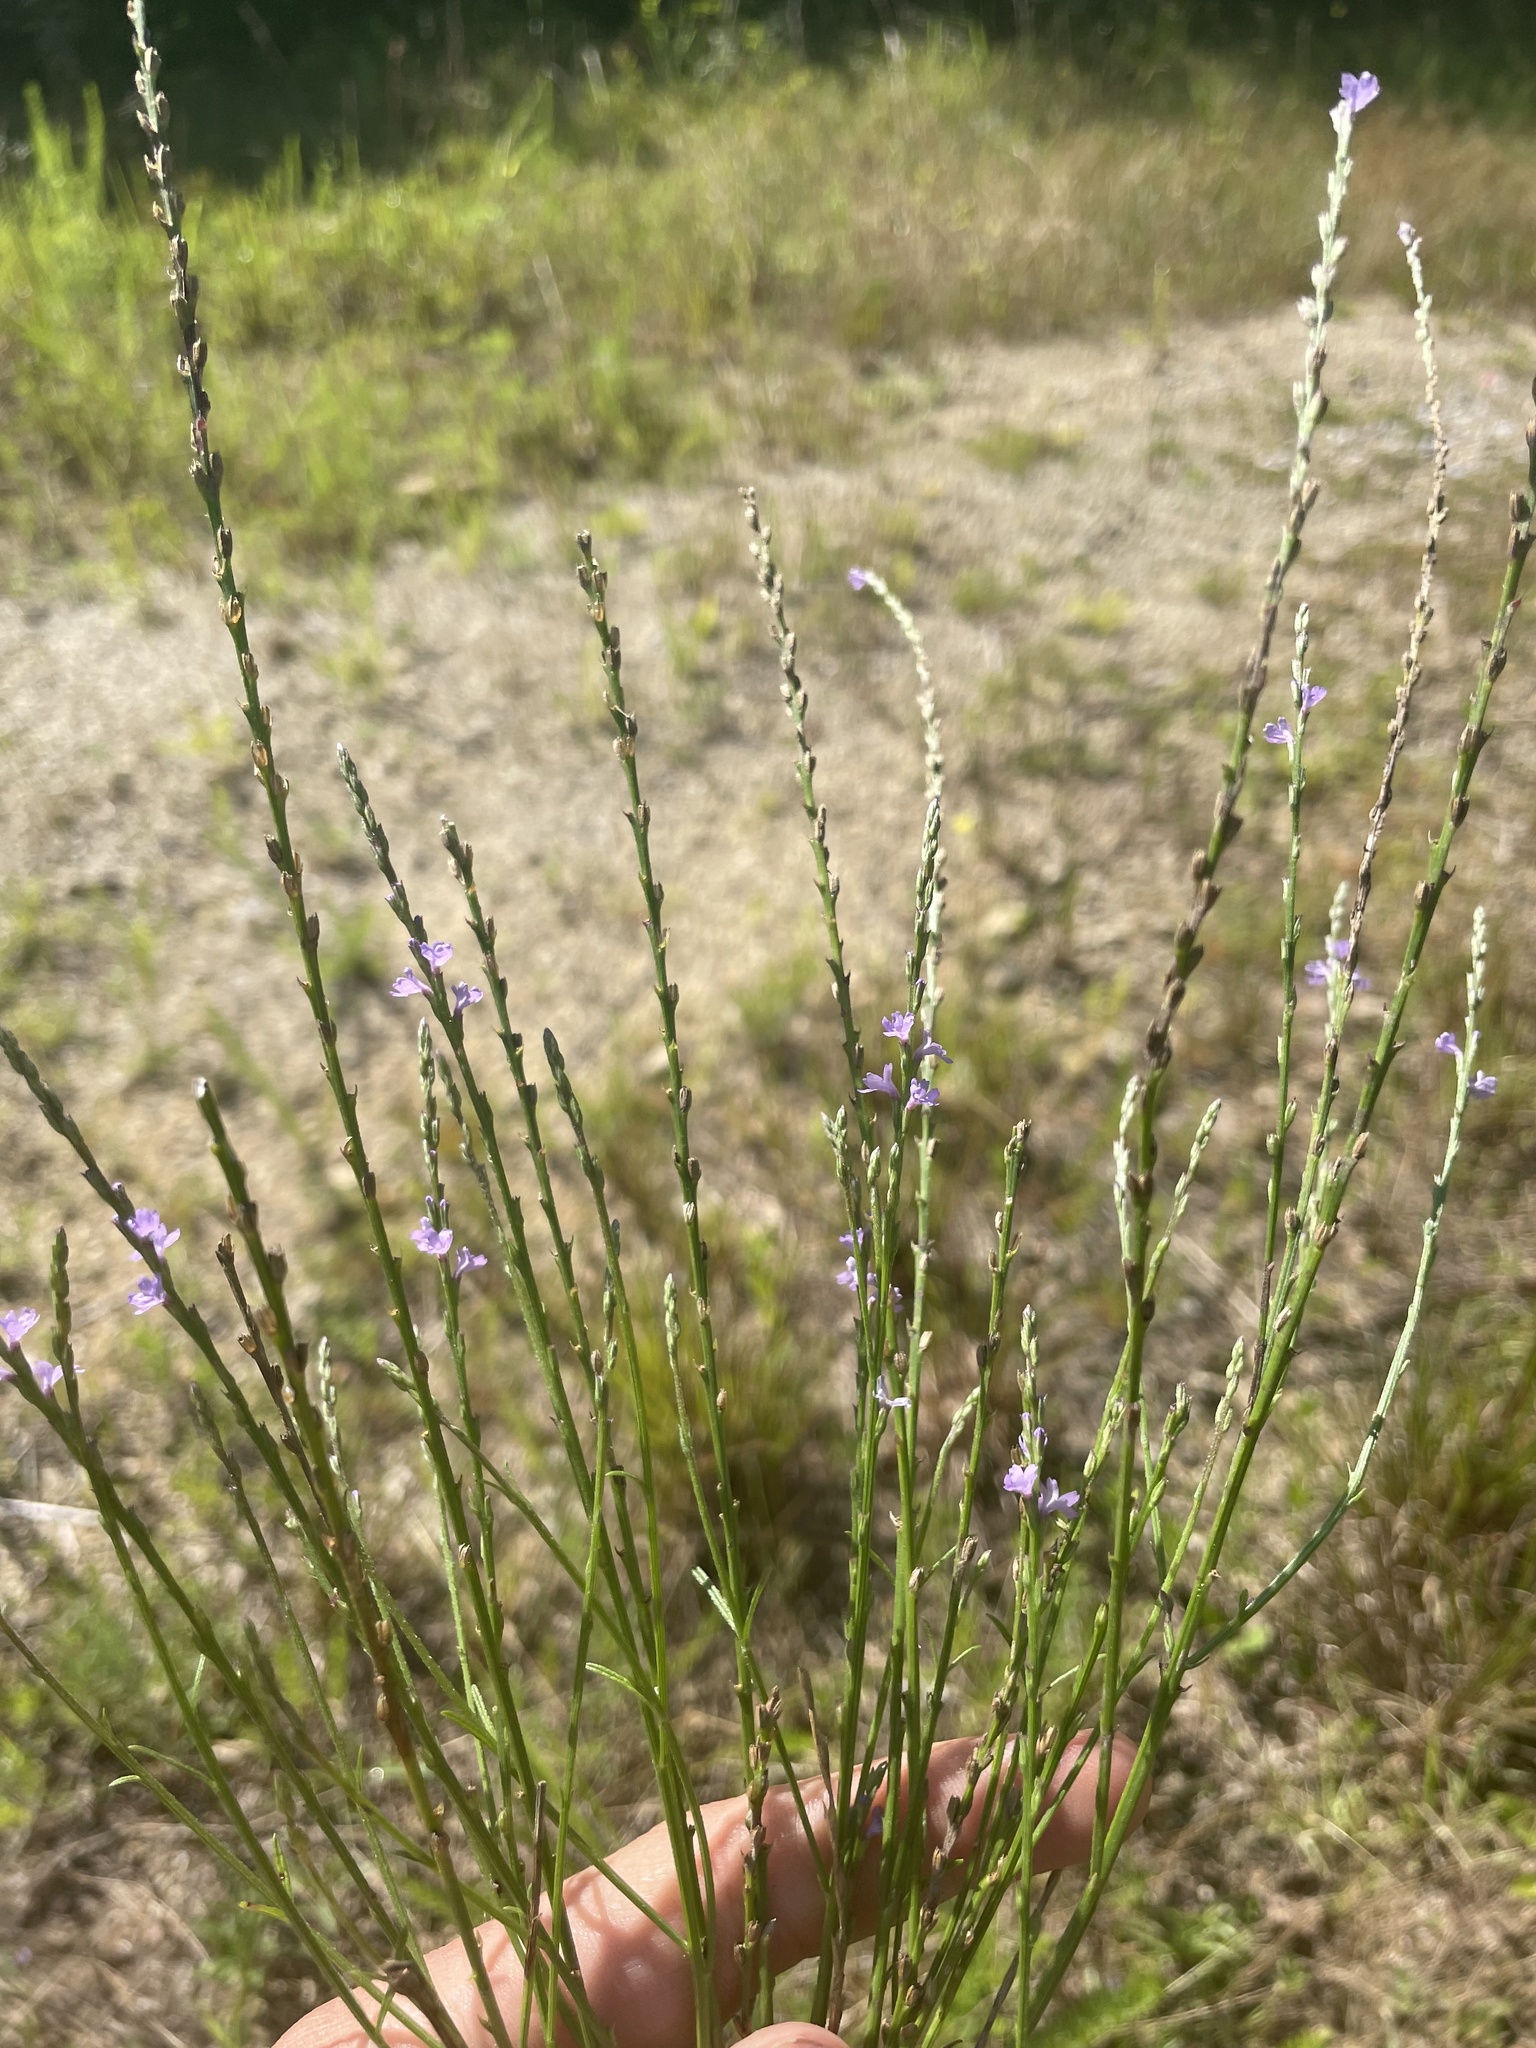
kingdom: Plantae
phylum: Tracheophyta
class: Magnoliopsida
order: Lamiales
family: Verbenaceae
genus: Verbena
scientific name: Verbena halei
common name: Texas vervain
